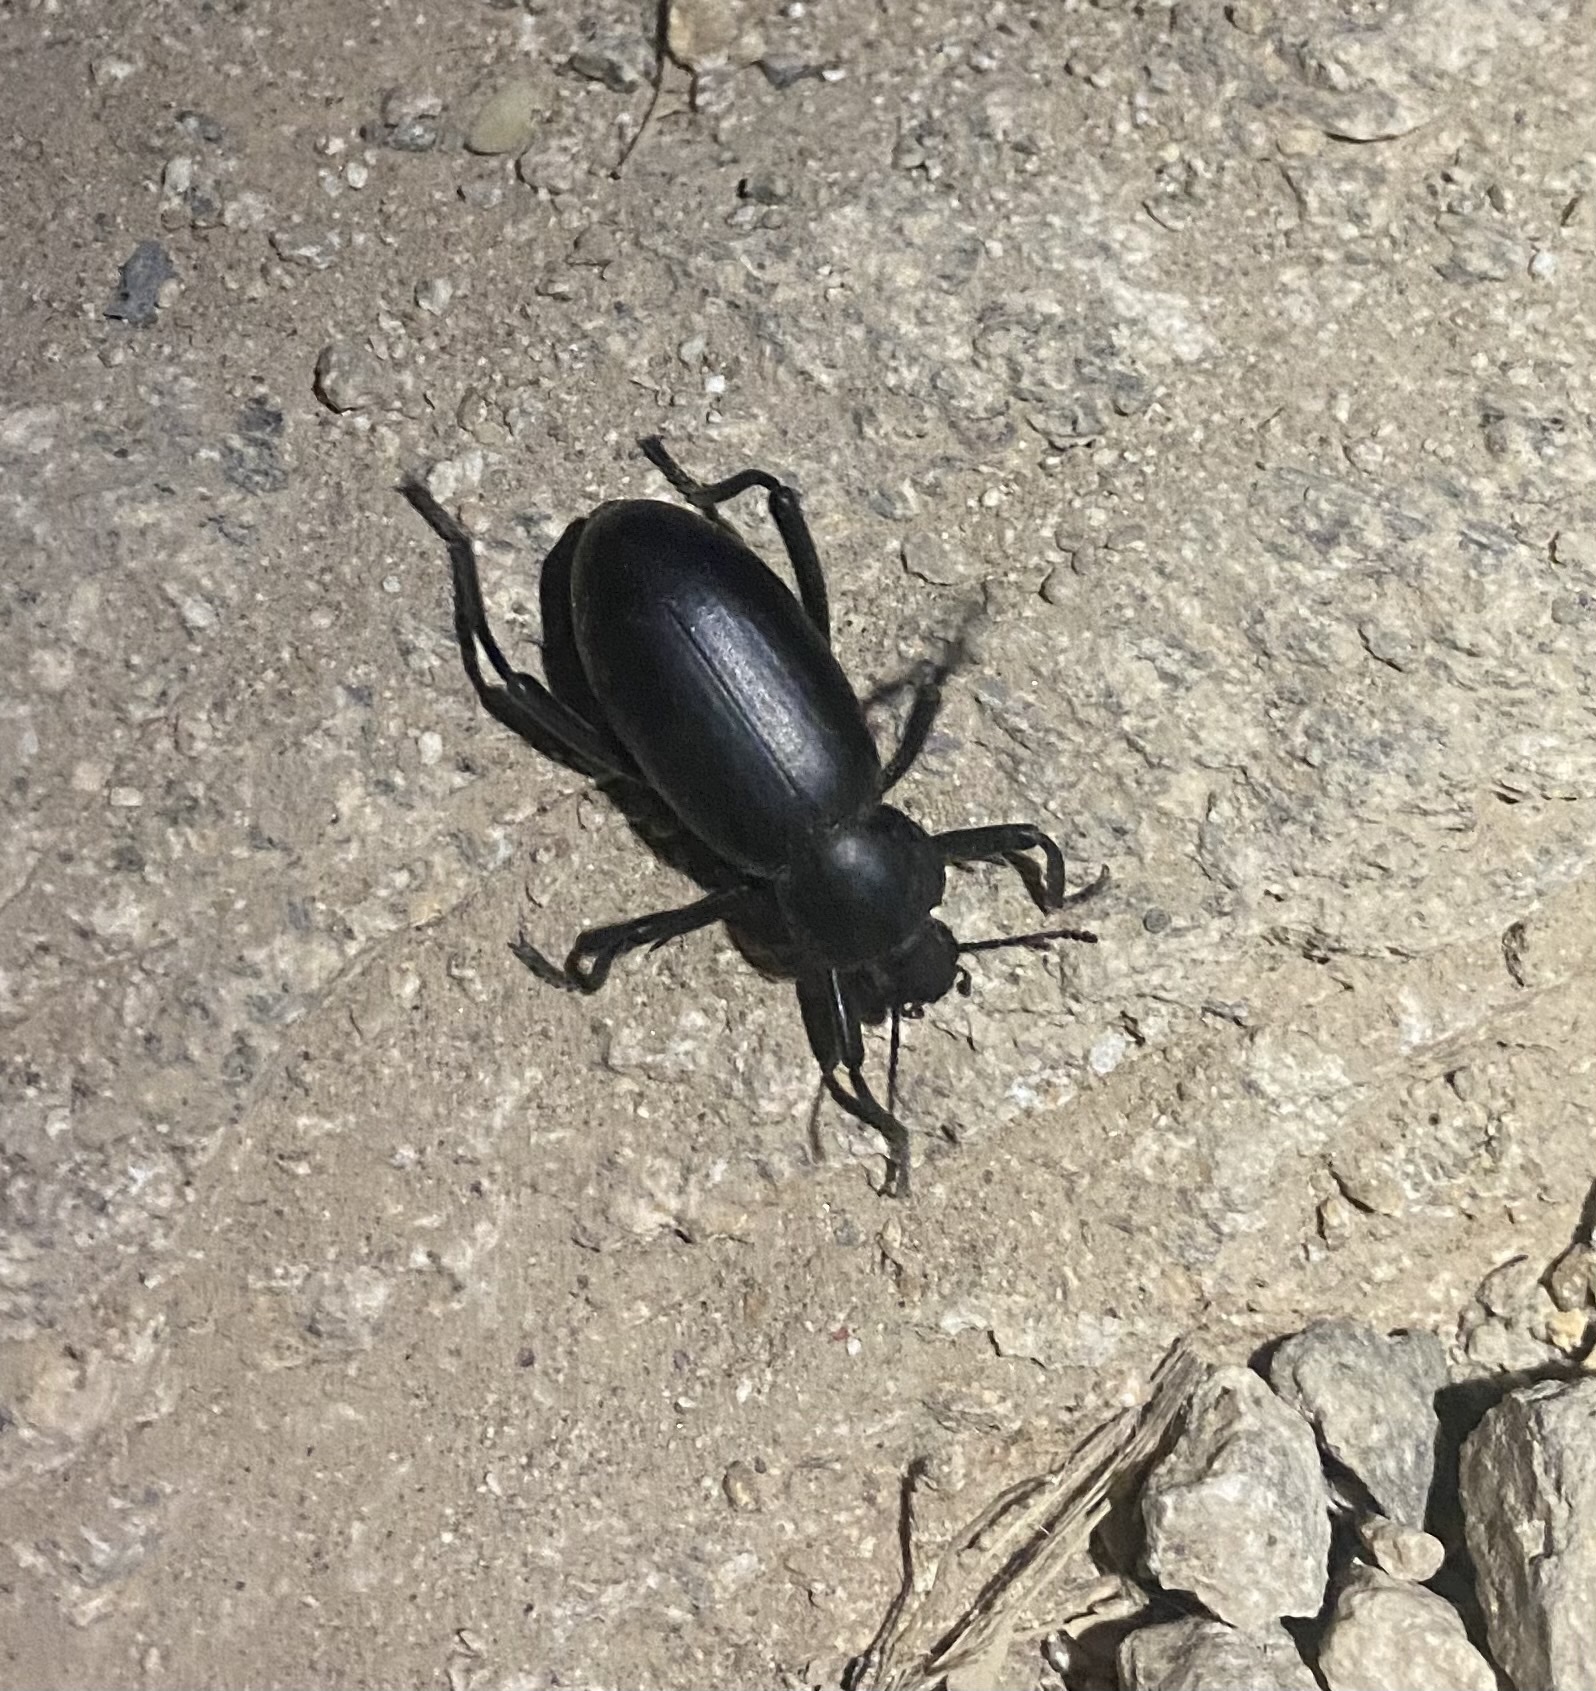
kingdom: Animalia
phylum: Arthropoda
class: Insecta
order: Coleoptera
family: Tenebrionidae
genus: Eleodes
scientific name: Eleodes armata
